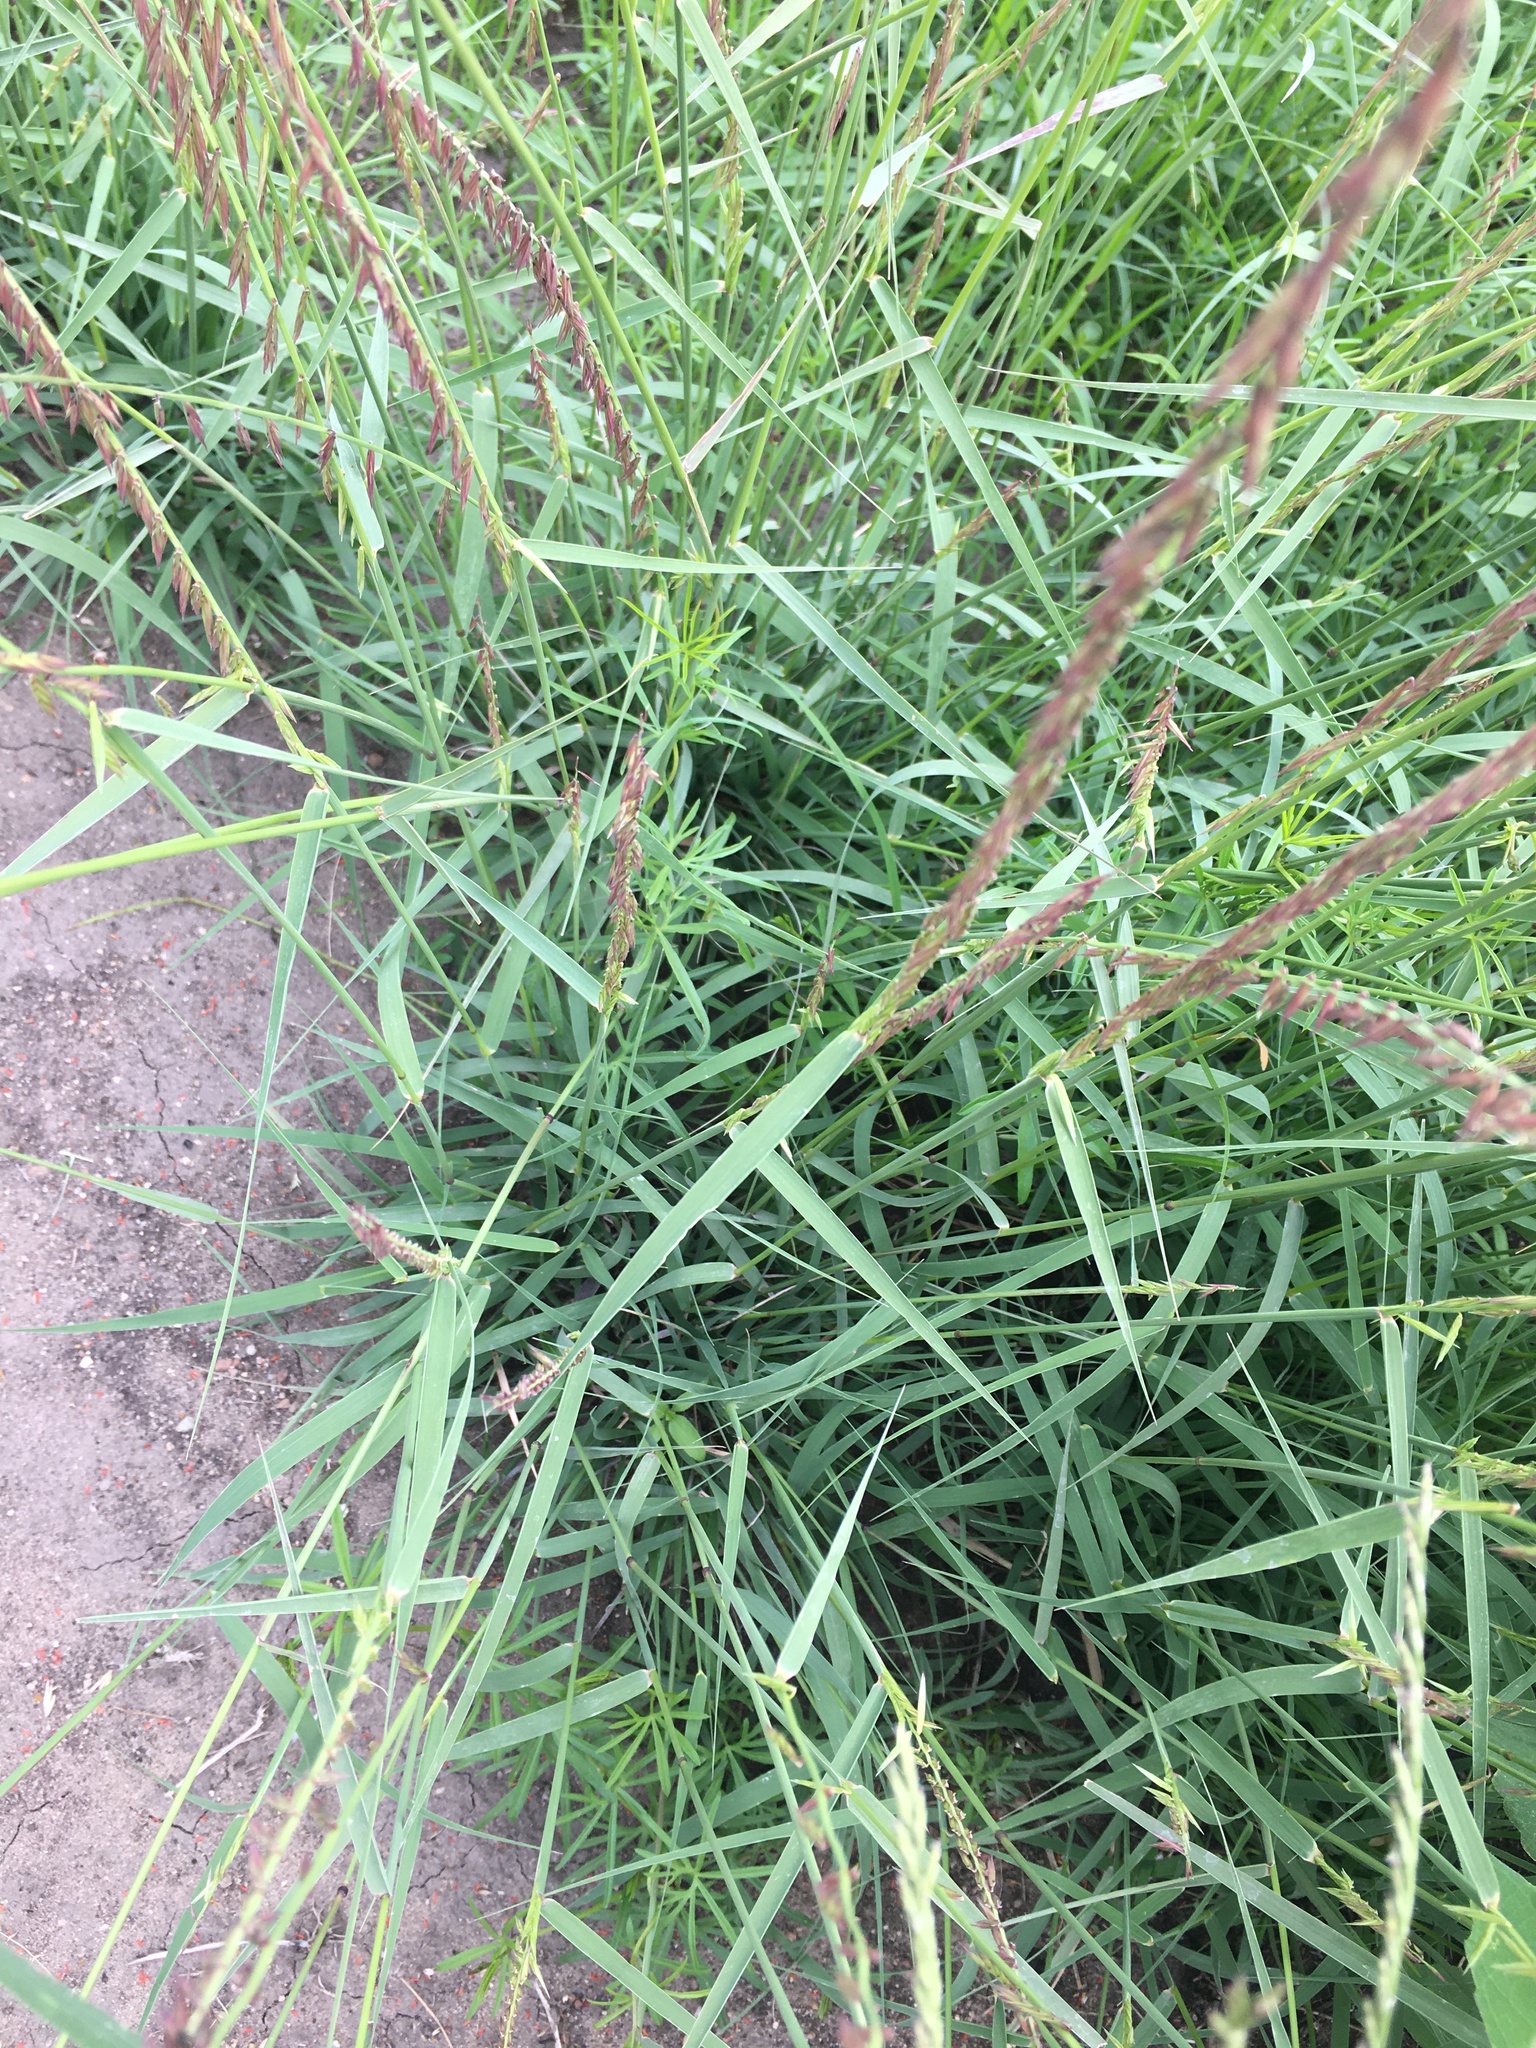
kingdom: Plantae
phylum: Tracheophyta
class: Liliopsida
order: Poales
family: Poaceae
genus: Bouteloua
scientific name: Bouteloua curtipendula
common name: Side-oats grama
